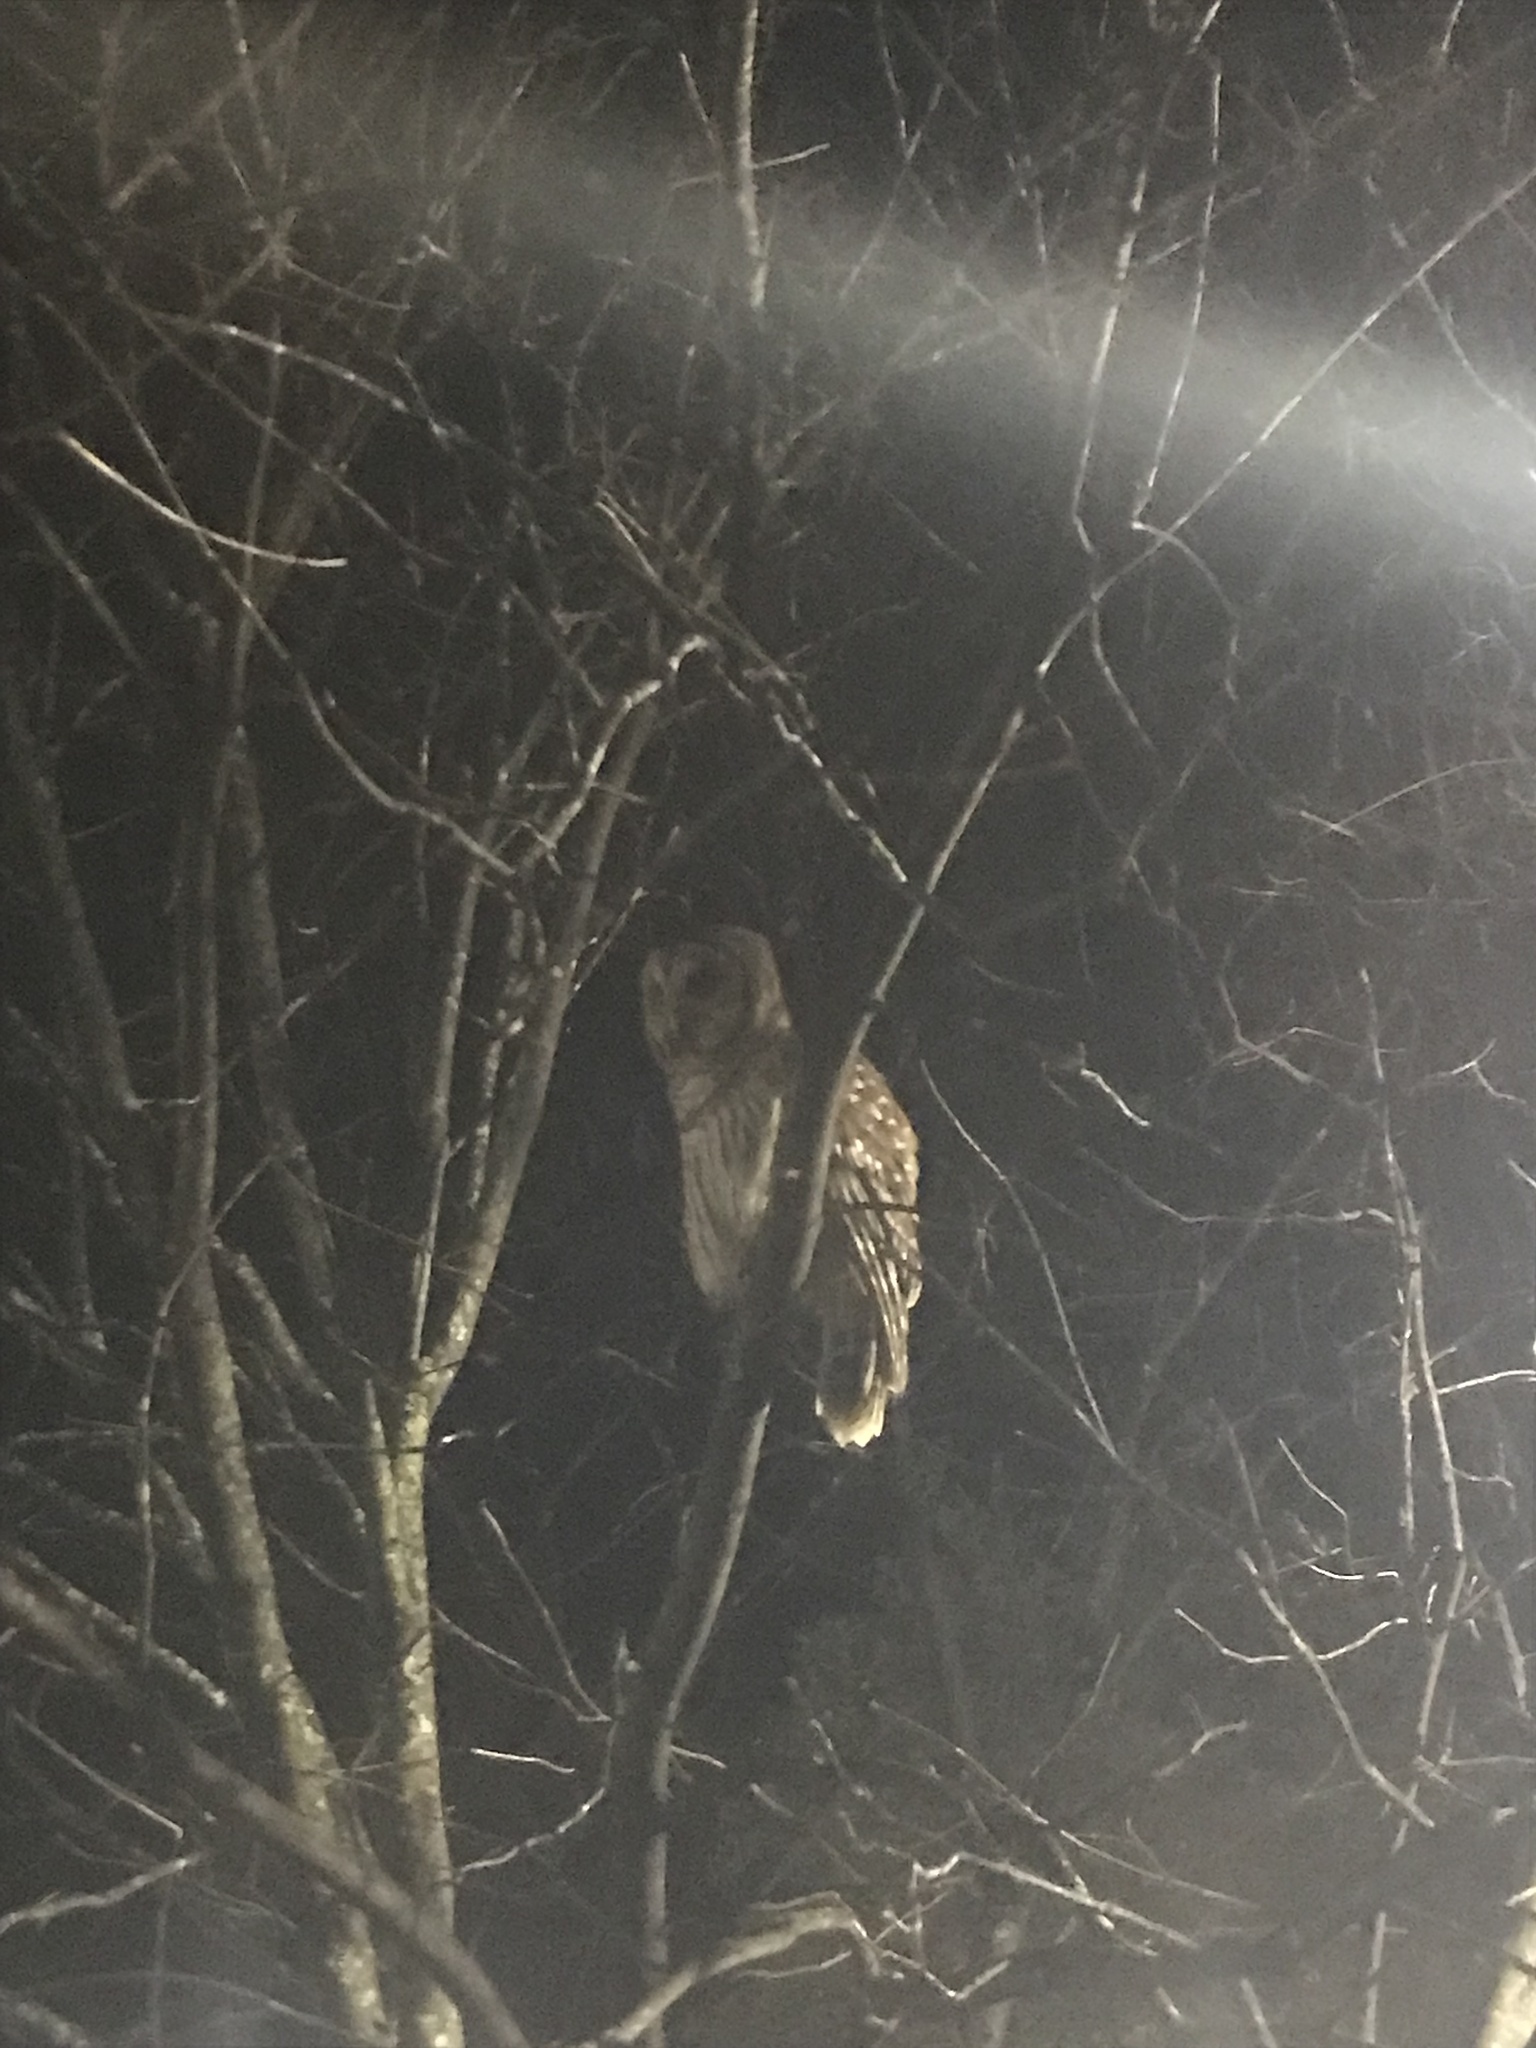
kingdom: Animalia
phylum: Chordata
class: Aves
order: Strigiformes
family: Strigidae
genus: Strix
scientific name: Strix varia
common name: Barred owl
